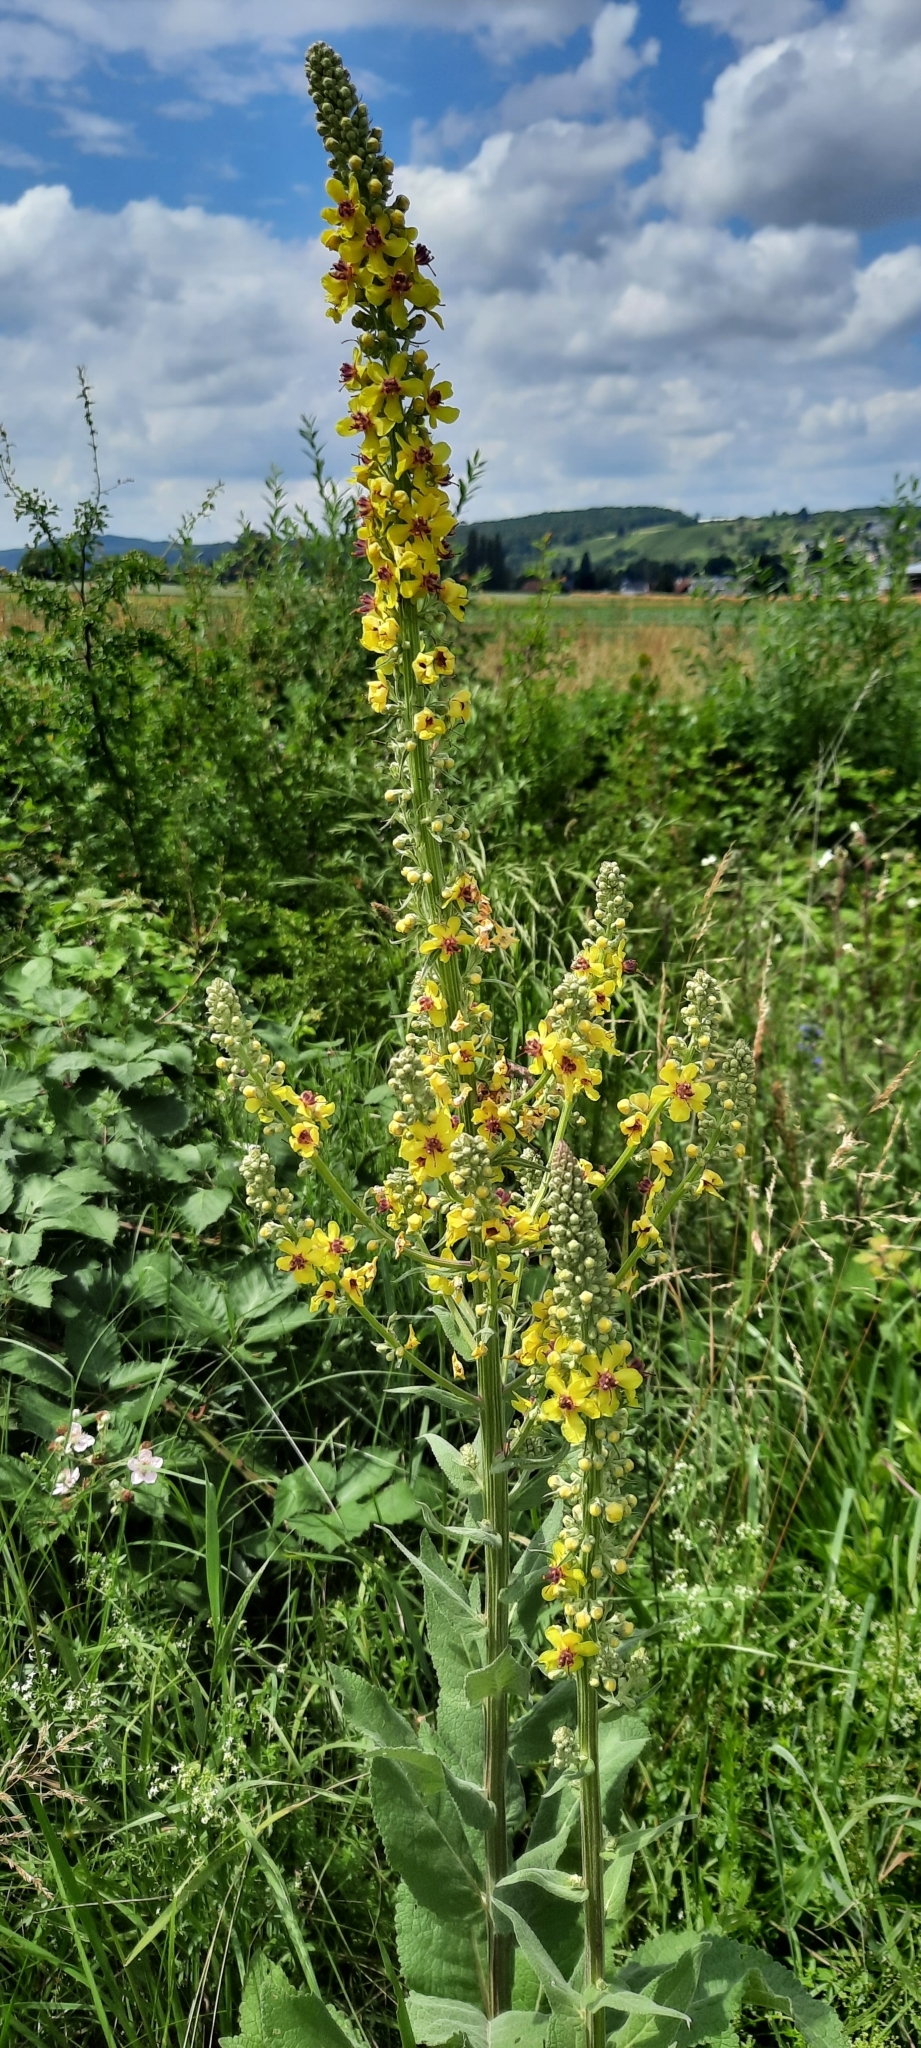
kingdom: Plantae
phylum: Tracheophyta
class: Magnoliopsida
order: Lamiales
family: Scrophulariaceae
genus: Verbascum
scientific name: Verbascum nigrum
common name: Dark mullein
